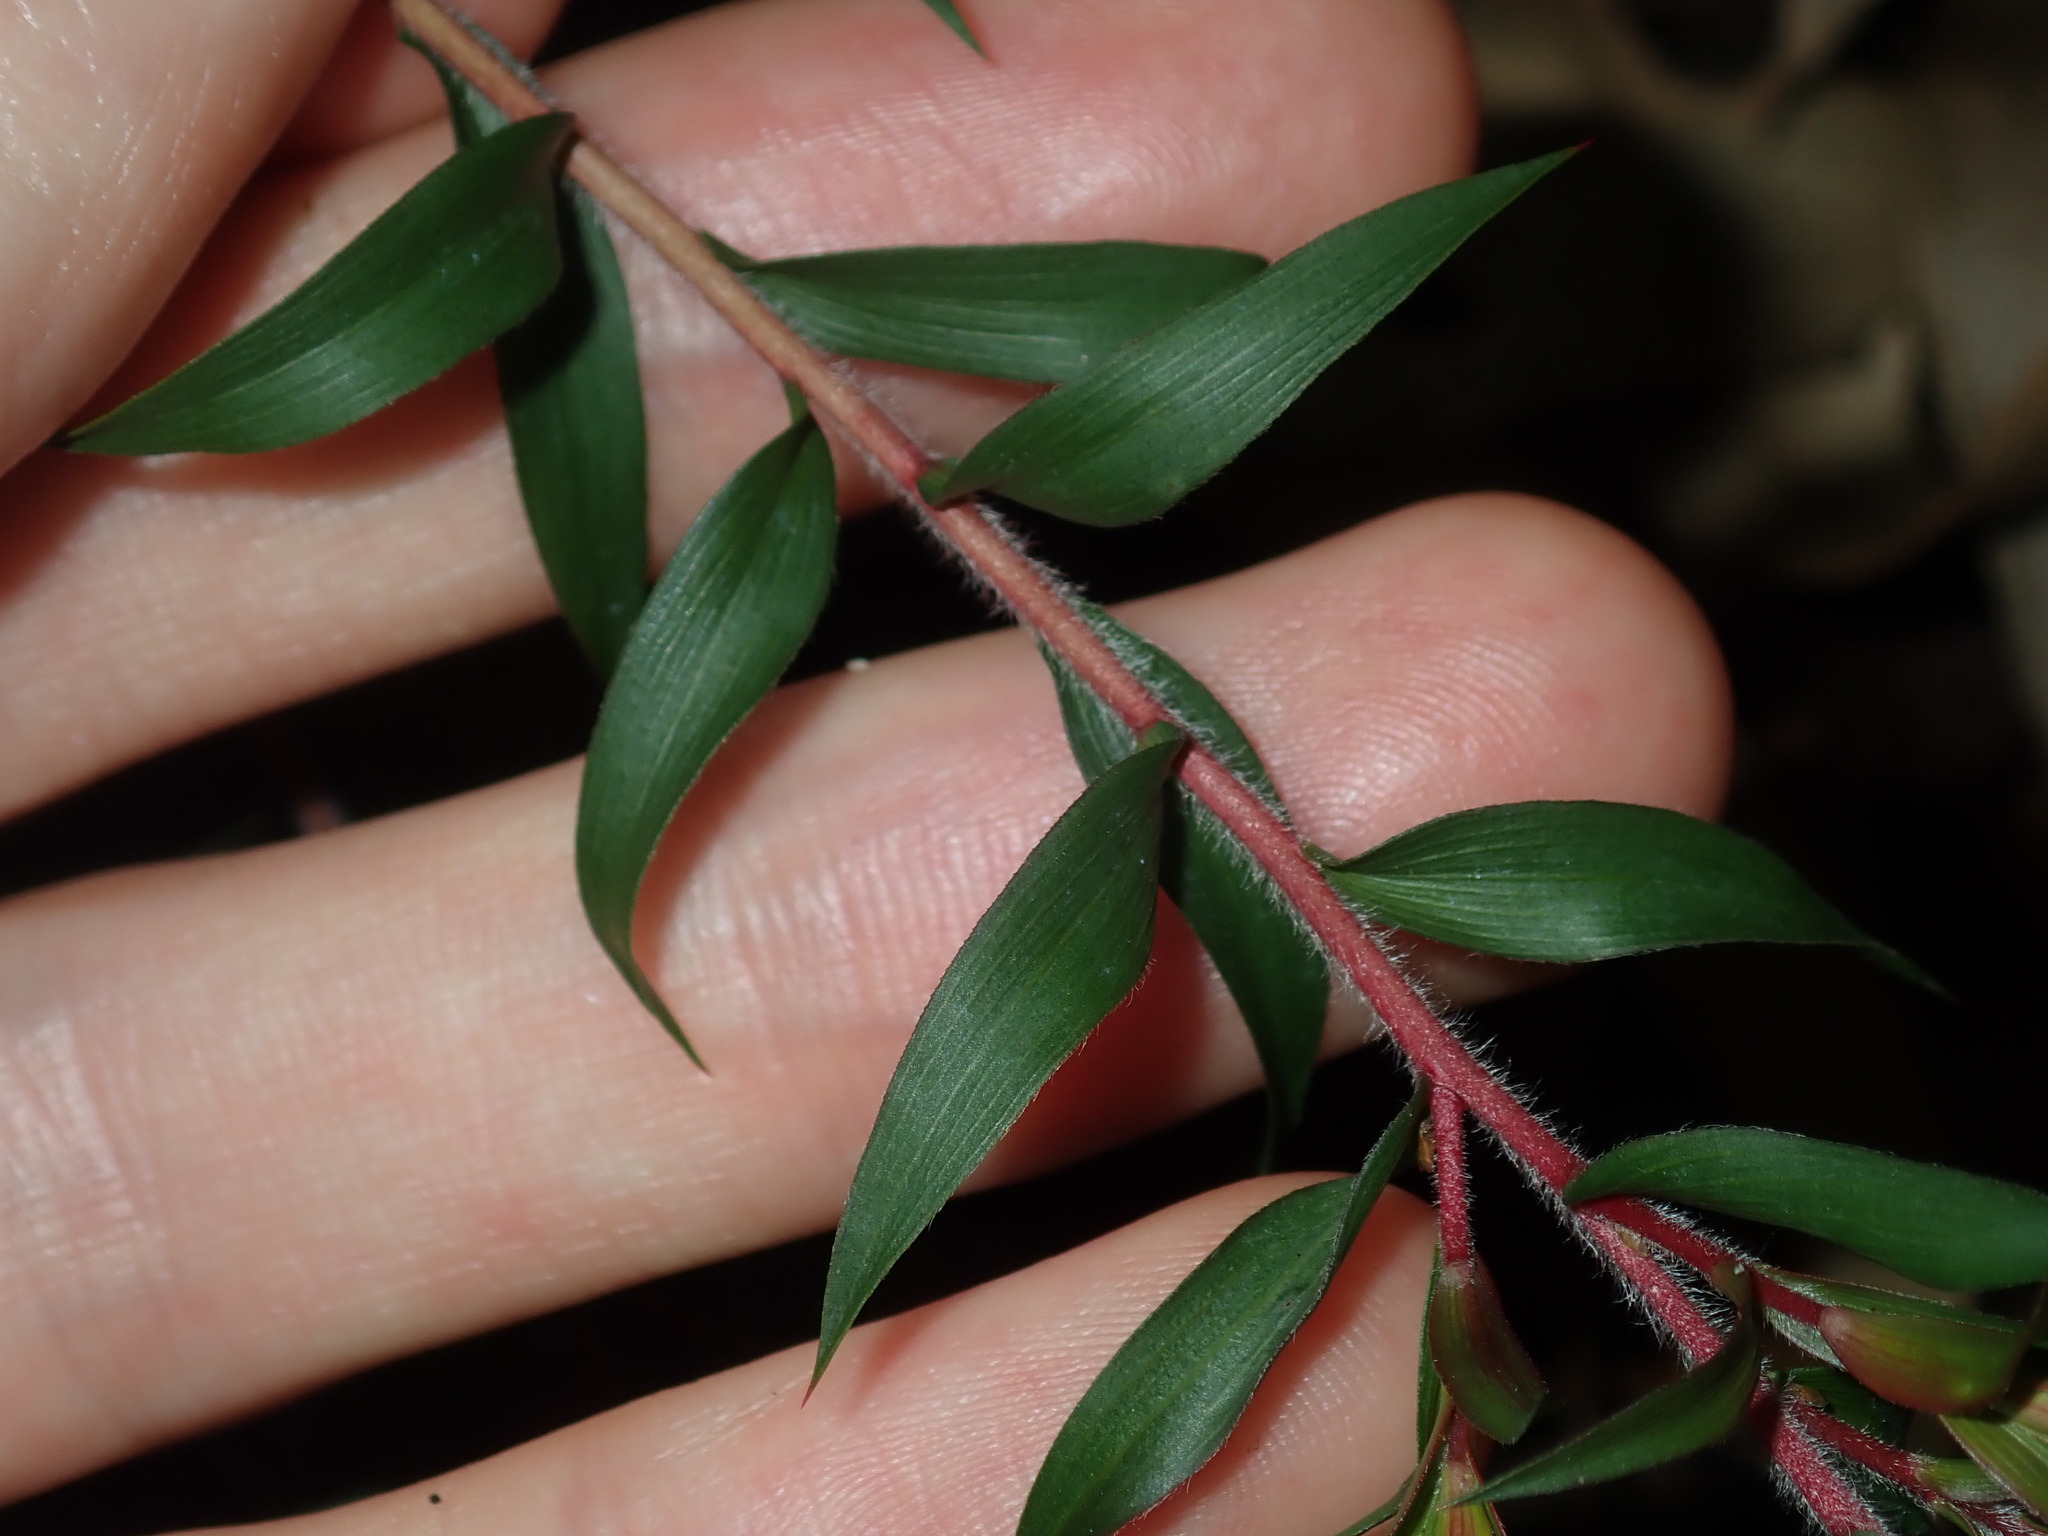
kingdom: Plantae
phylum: Tracheophyta
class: Magnoliopsida
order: Myrtales
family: Myrtaceae
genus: Melaleuca
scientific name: Melaleuca styphelioides
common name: Prickly paperbark
